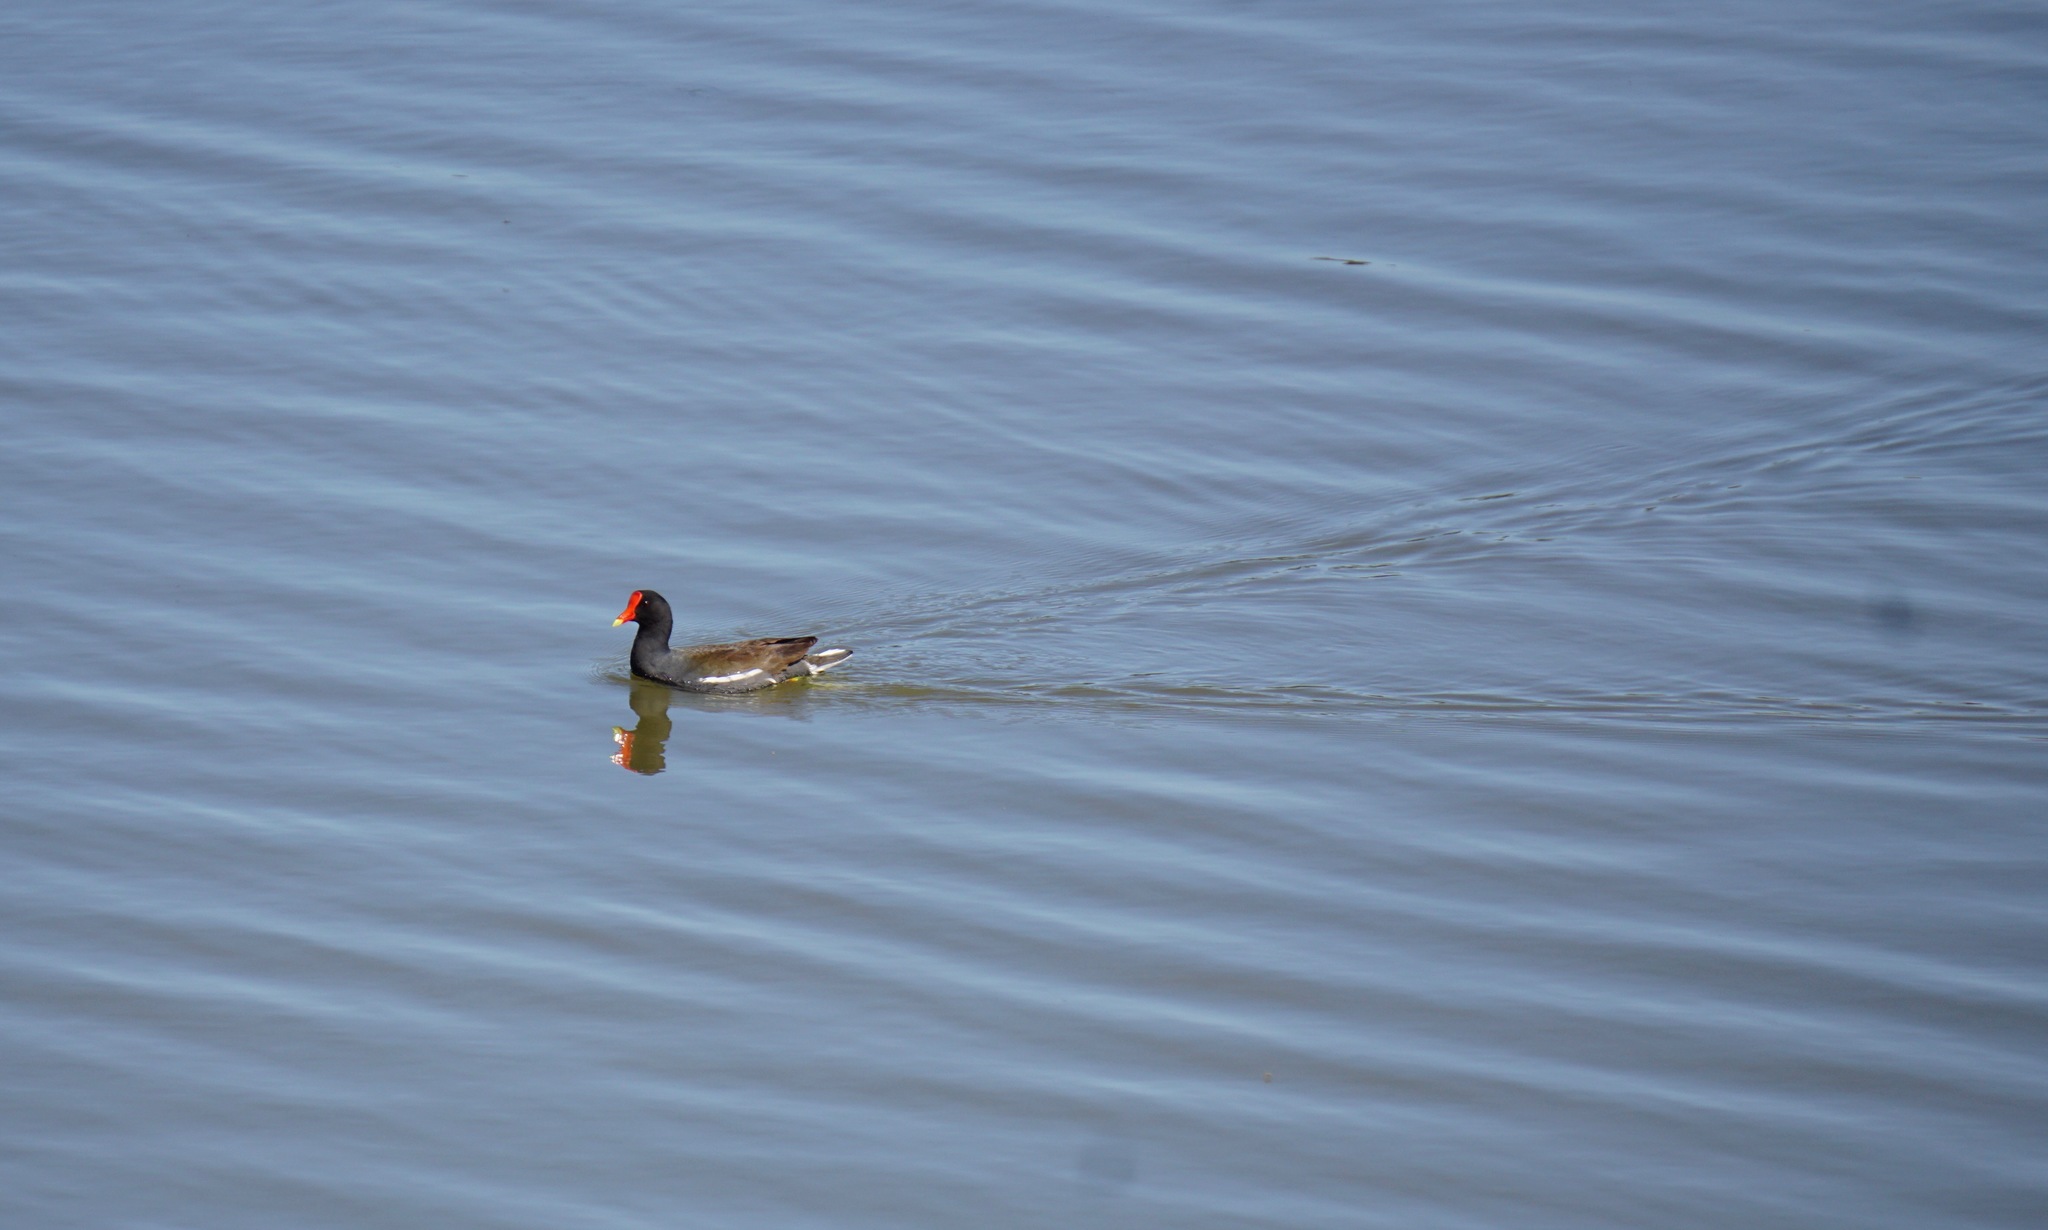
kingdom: Animalia
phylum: Chordata
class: Aves
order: Gruiformes
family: Rallidae
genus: Gallinula
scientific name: Gallinula chloropus
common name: Common moorhen
